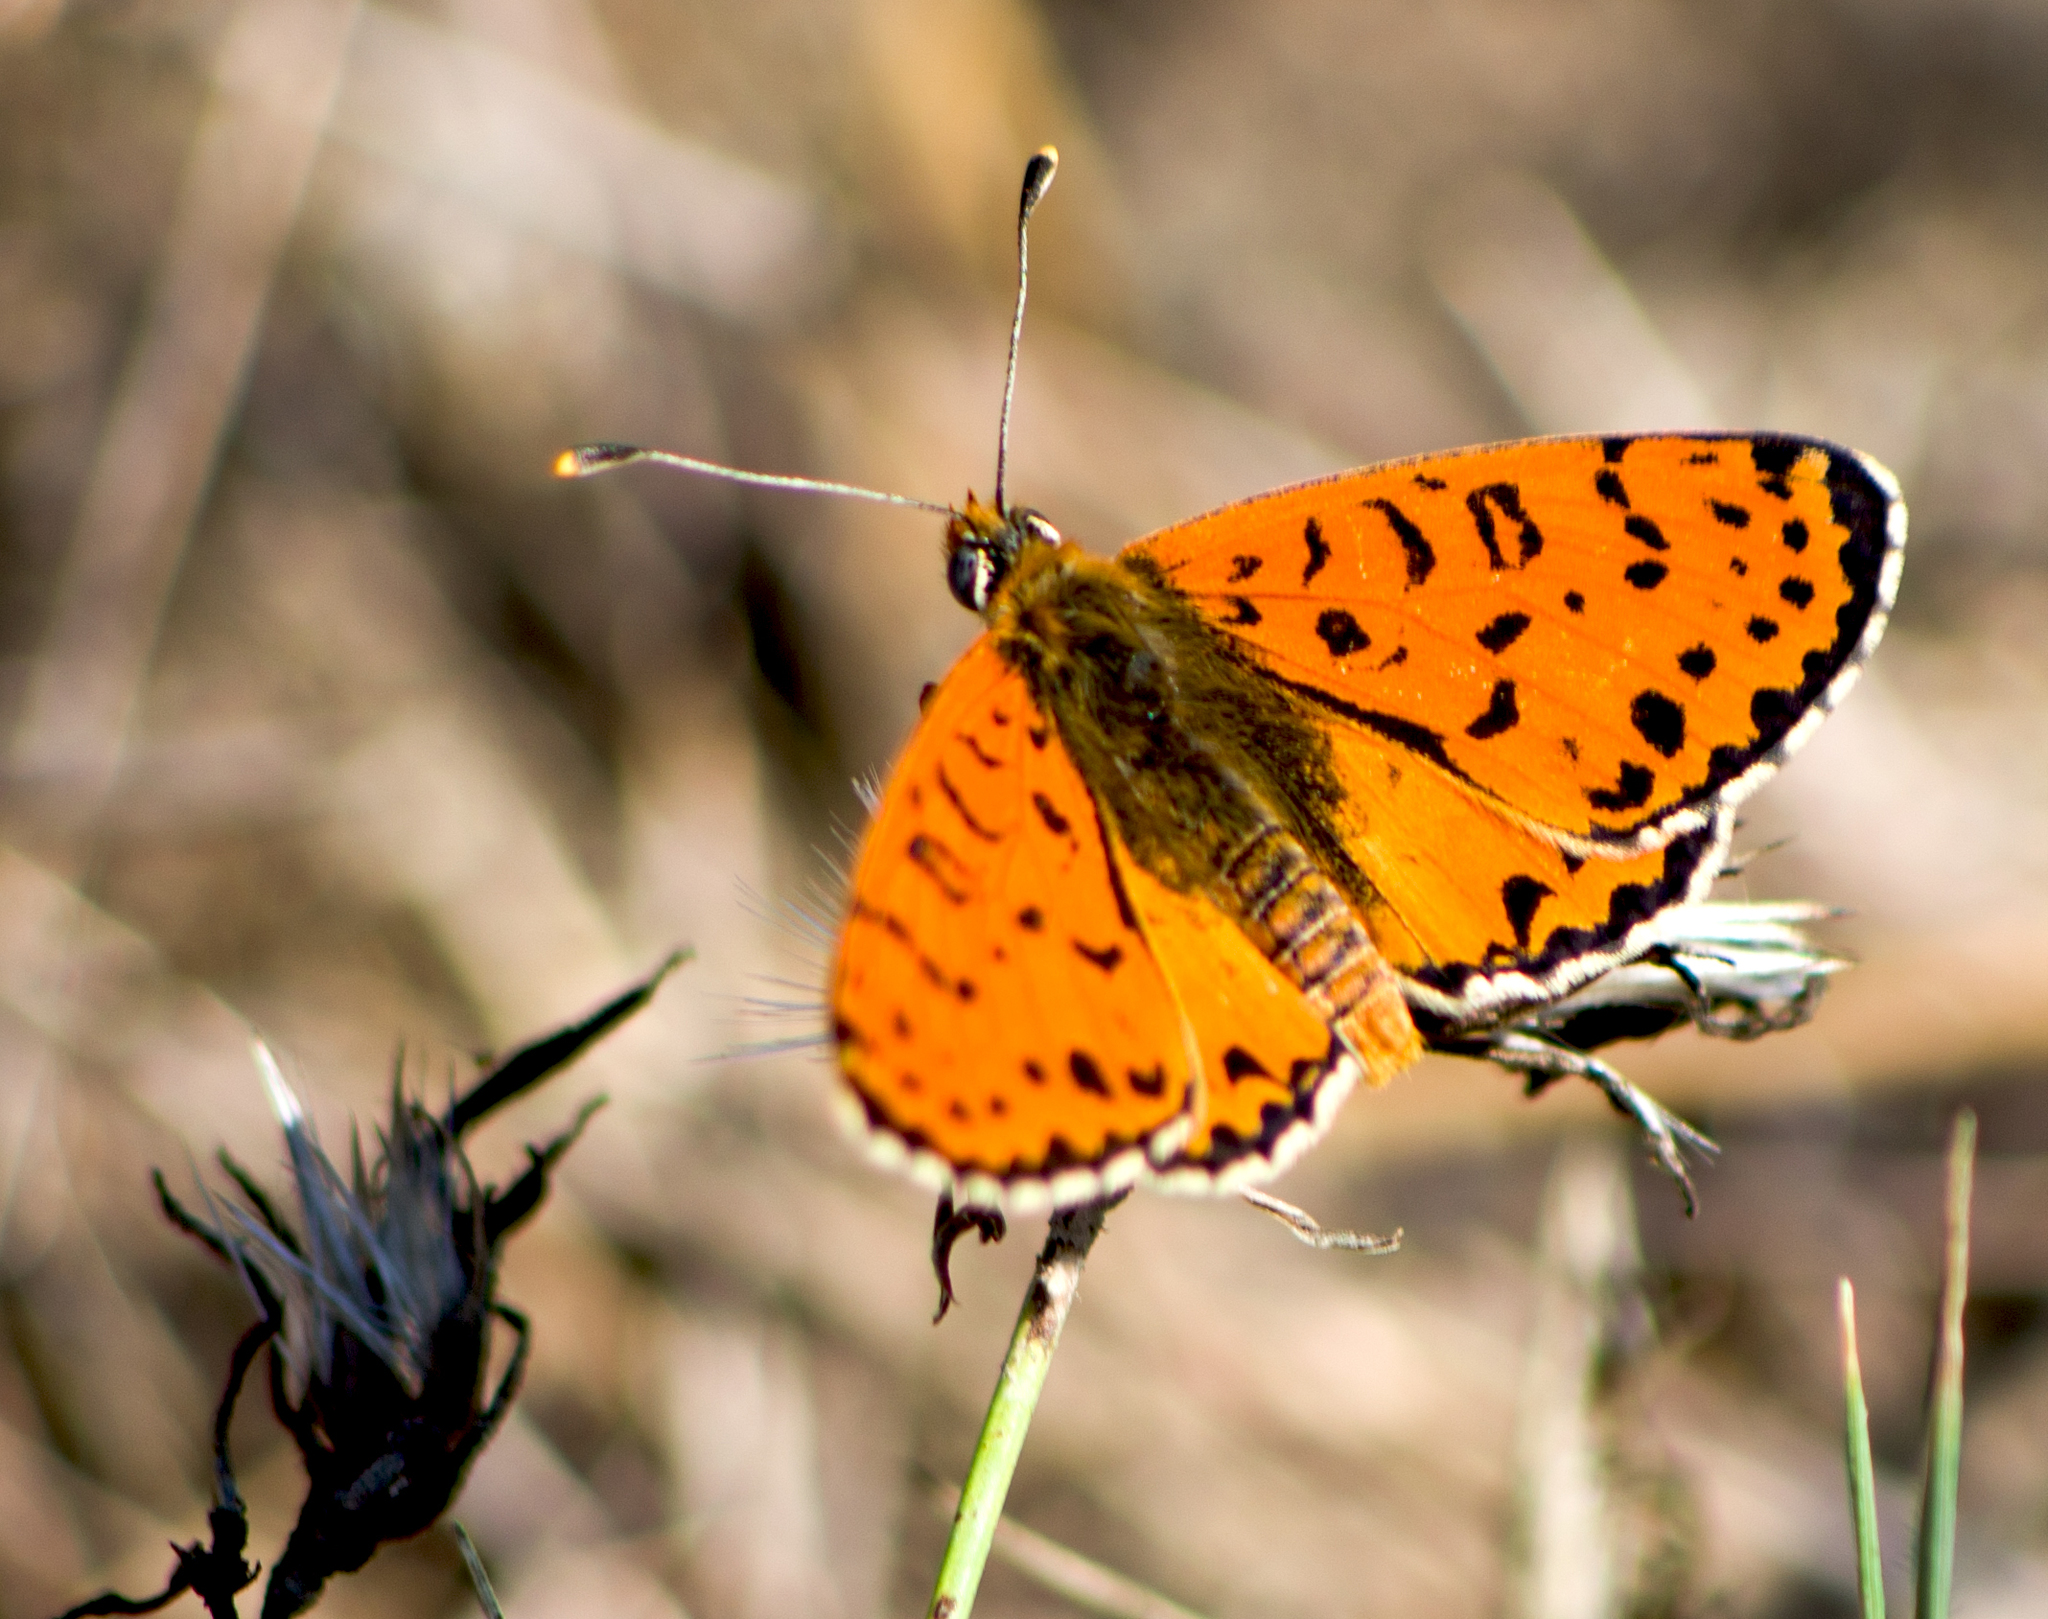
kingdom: Animalia
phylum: Arthropoda
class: Insecta
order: Lepidoptera
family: Nymphalidae
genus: Melitaea
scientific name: Melitaea didyma
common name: Spotted fritillary
